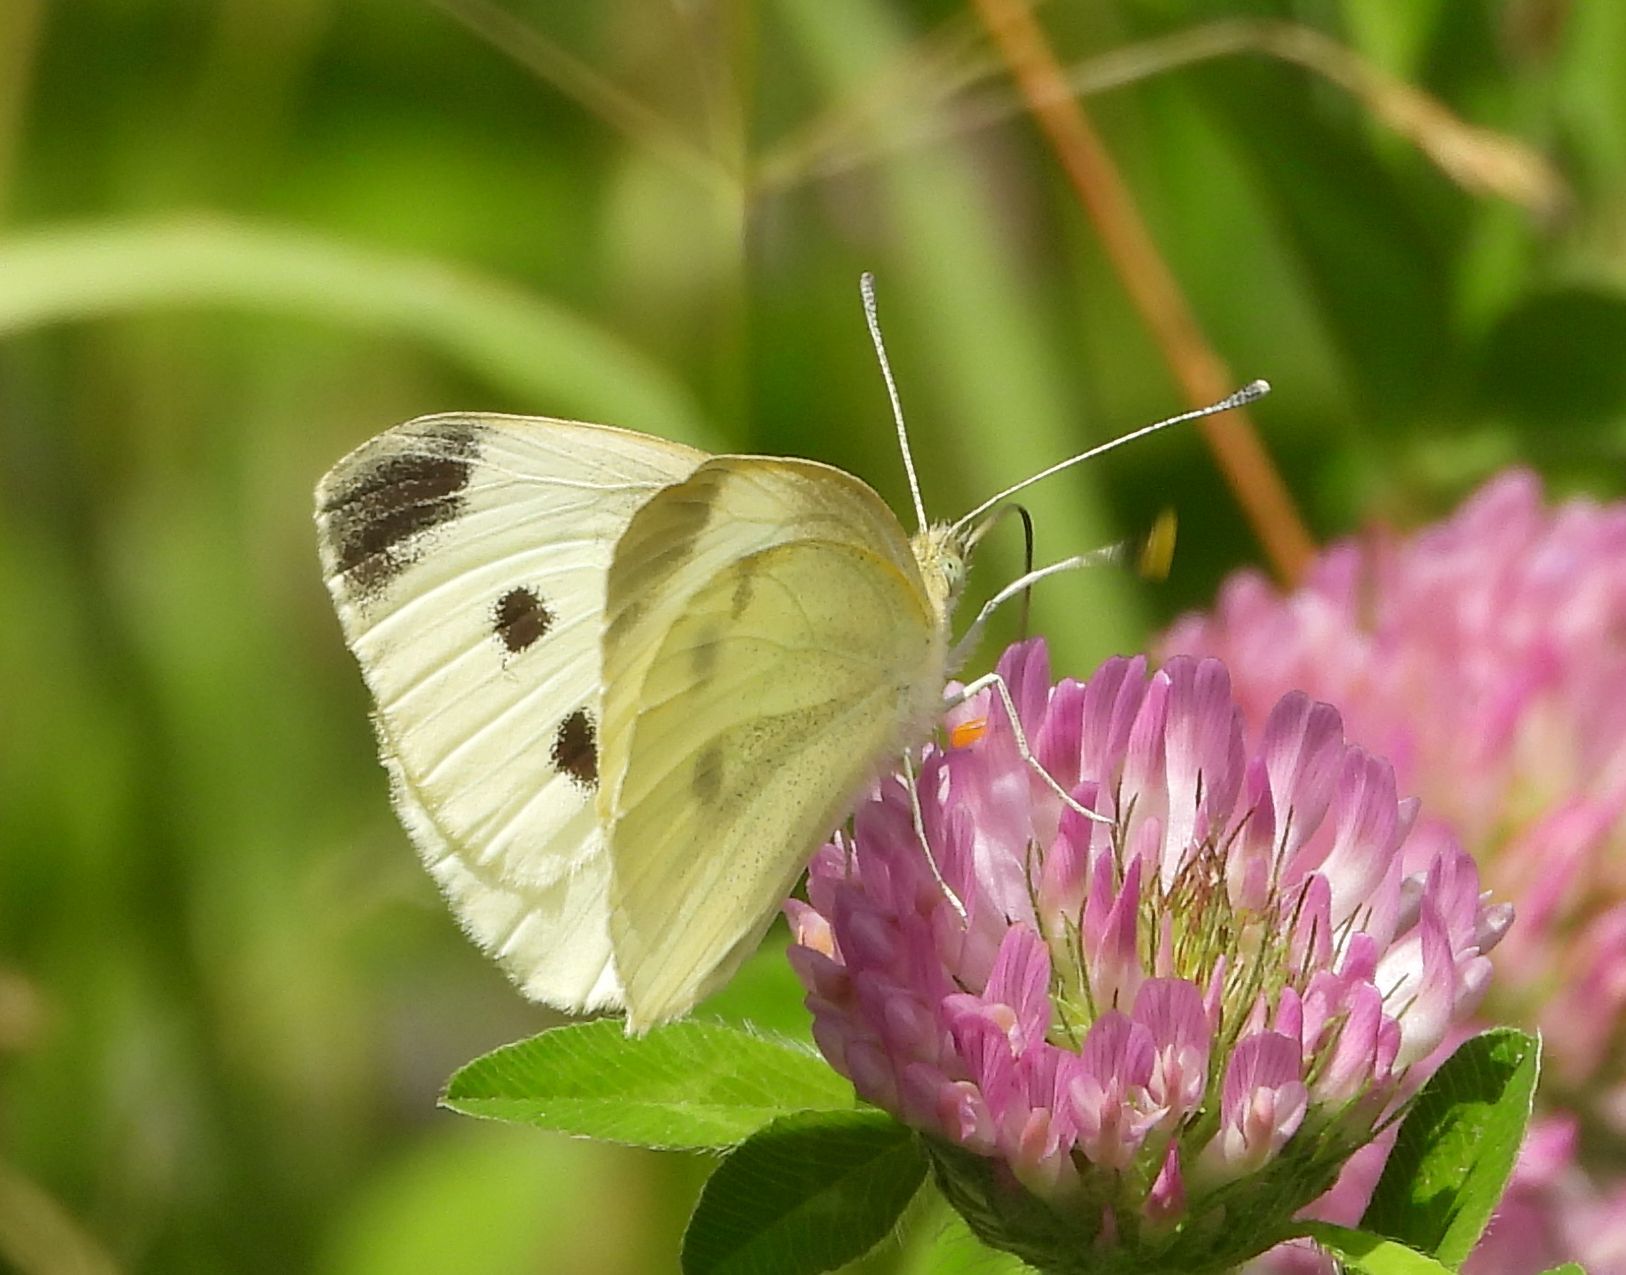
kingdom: Animalia
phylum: Arthropoda
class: Insecta
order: Lepidoptera
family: Pieridae
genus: Pieris
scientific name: Pieris rapae
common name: Small white
